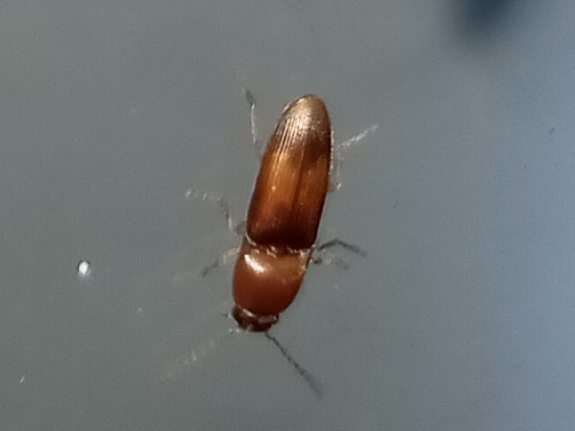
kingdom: Animalia
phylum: Arthropoda
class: Insecta
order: Coleoptera
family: Elateridae
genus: Monocrepidius
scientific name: Monocrepidius
